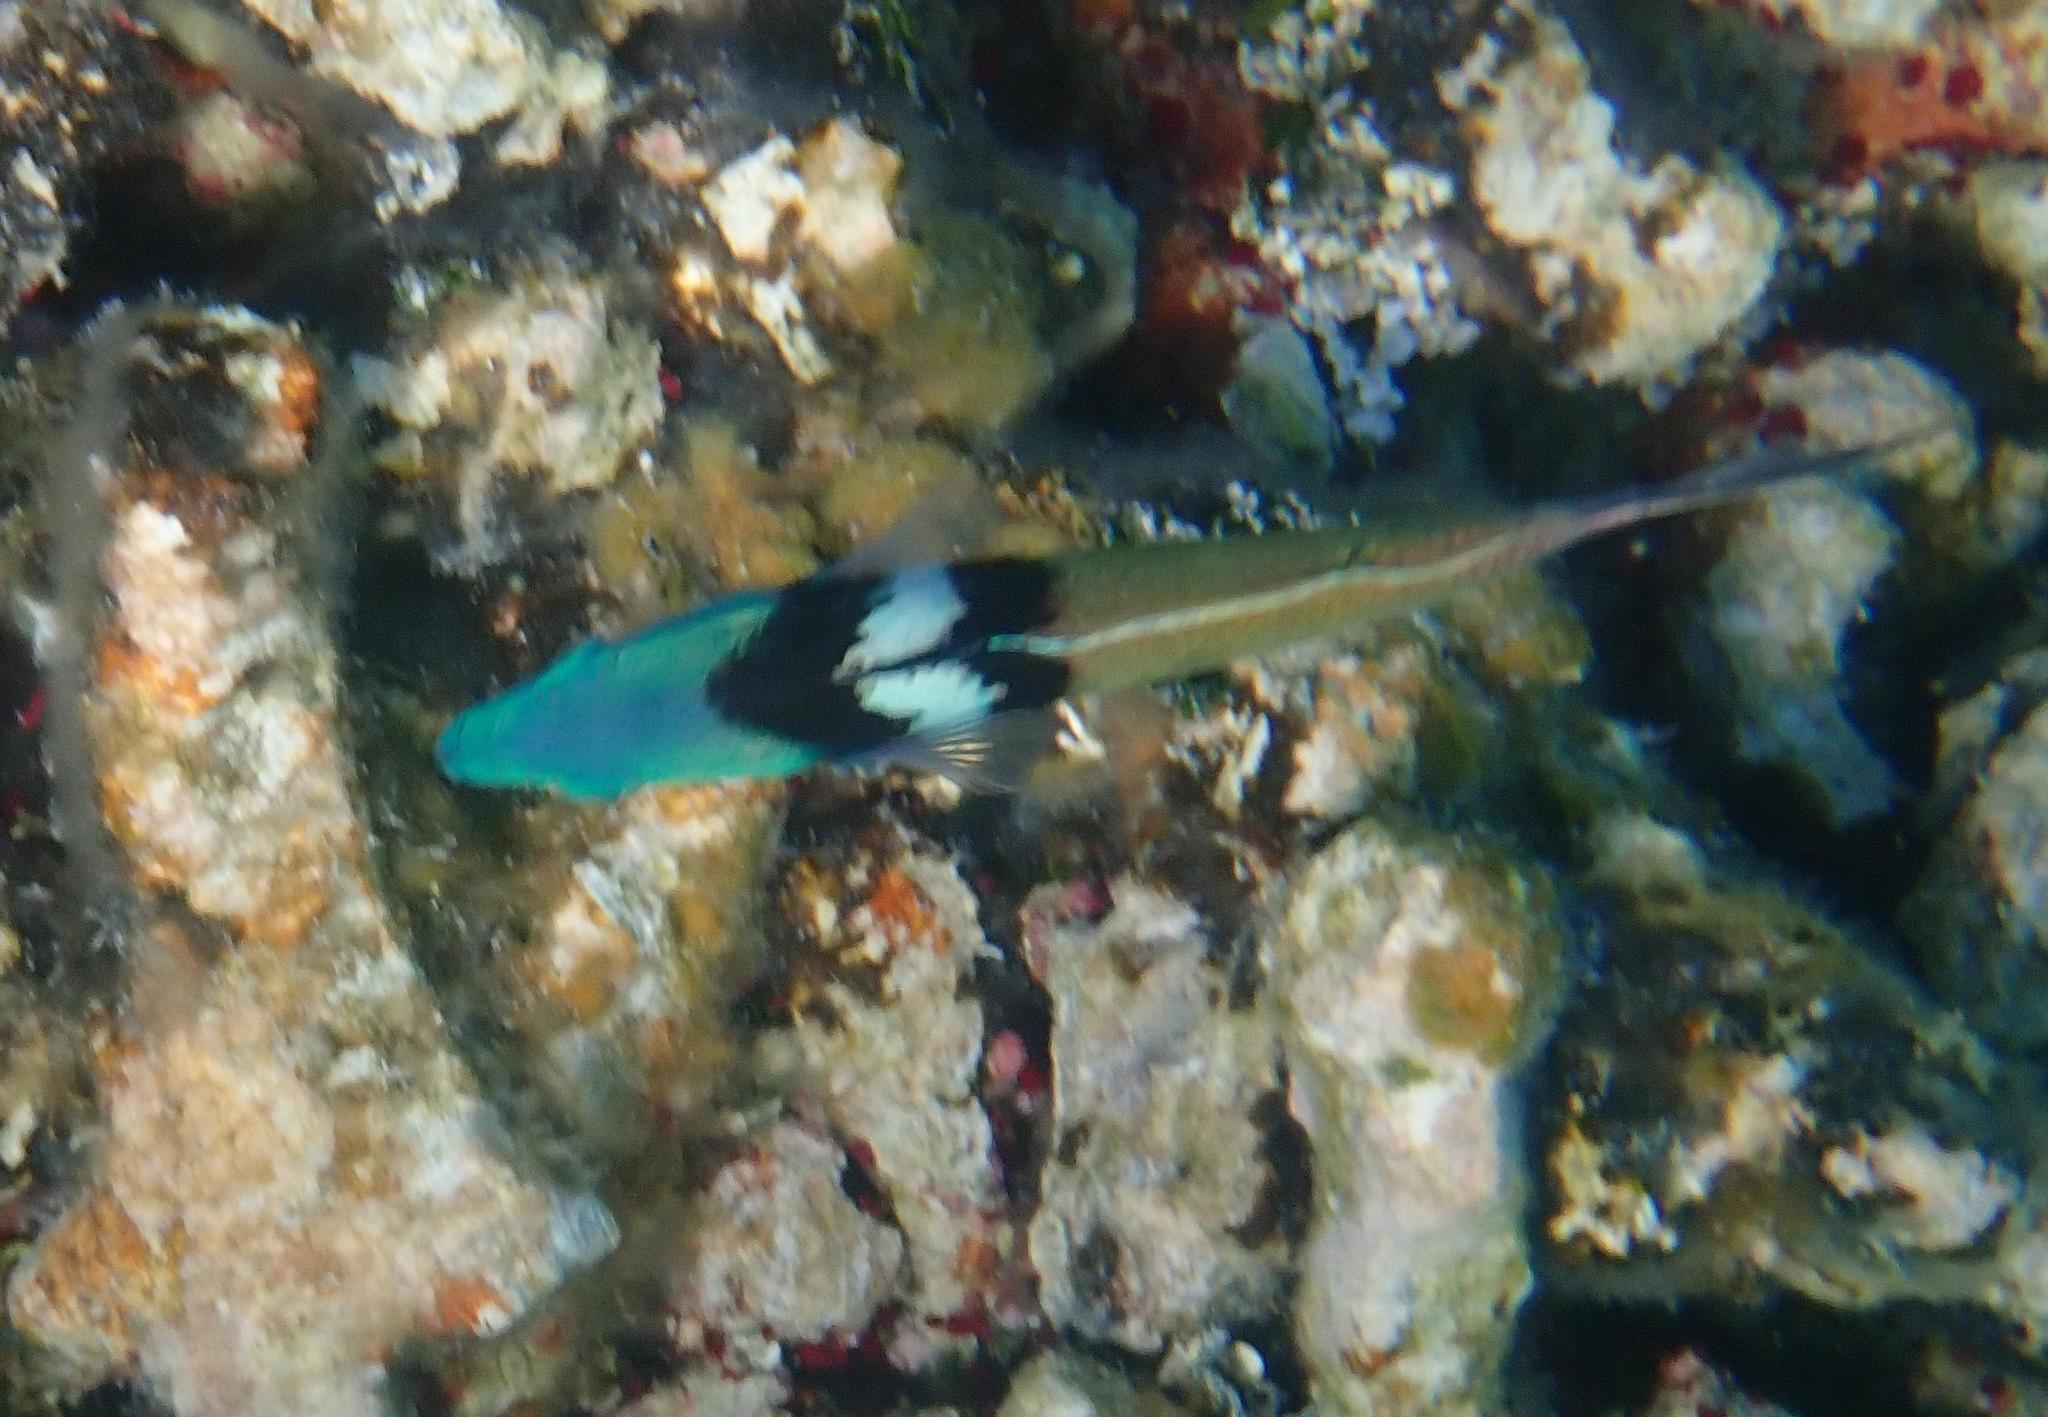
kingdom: Animalia
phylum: Chordata
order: Perciformes
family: Labridae
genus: Thalassoma
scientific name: Thalassoma bifasciatum
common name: Bluehead wrasse
